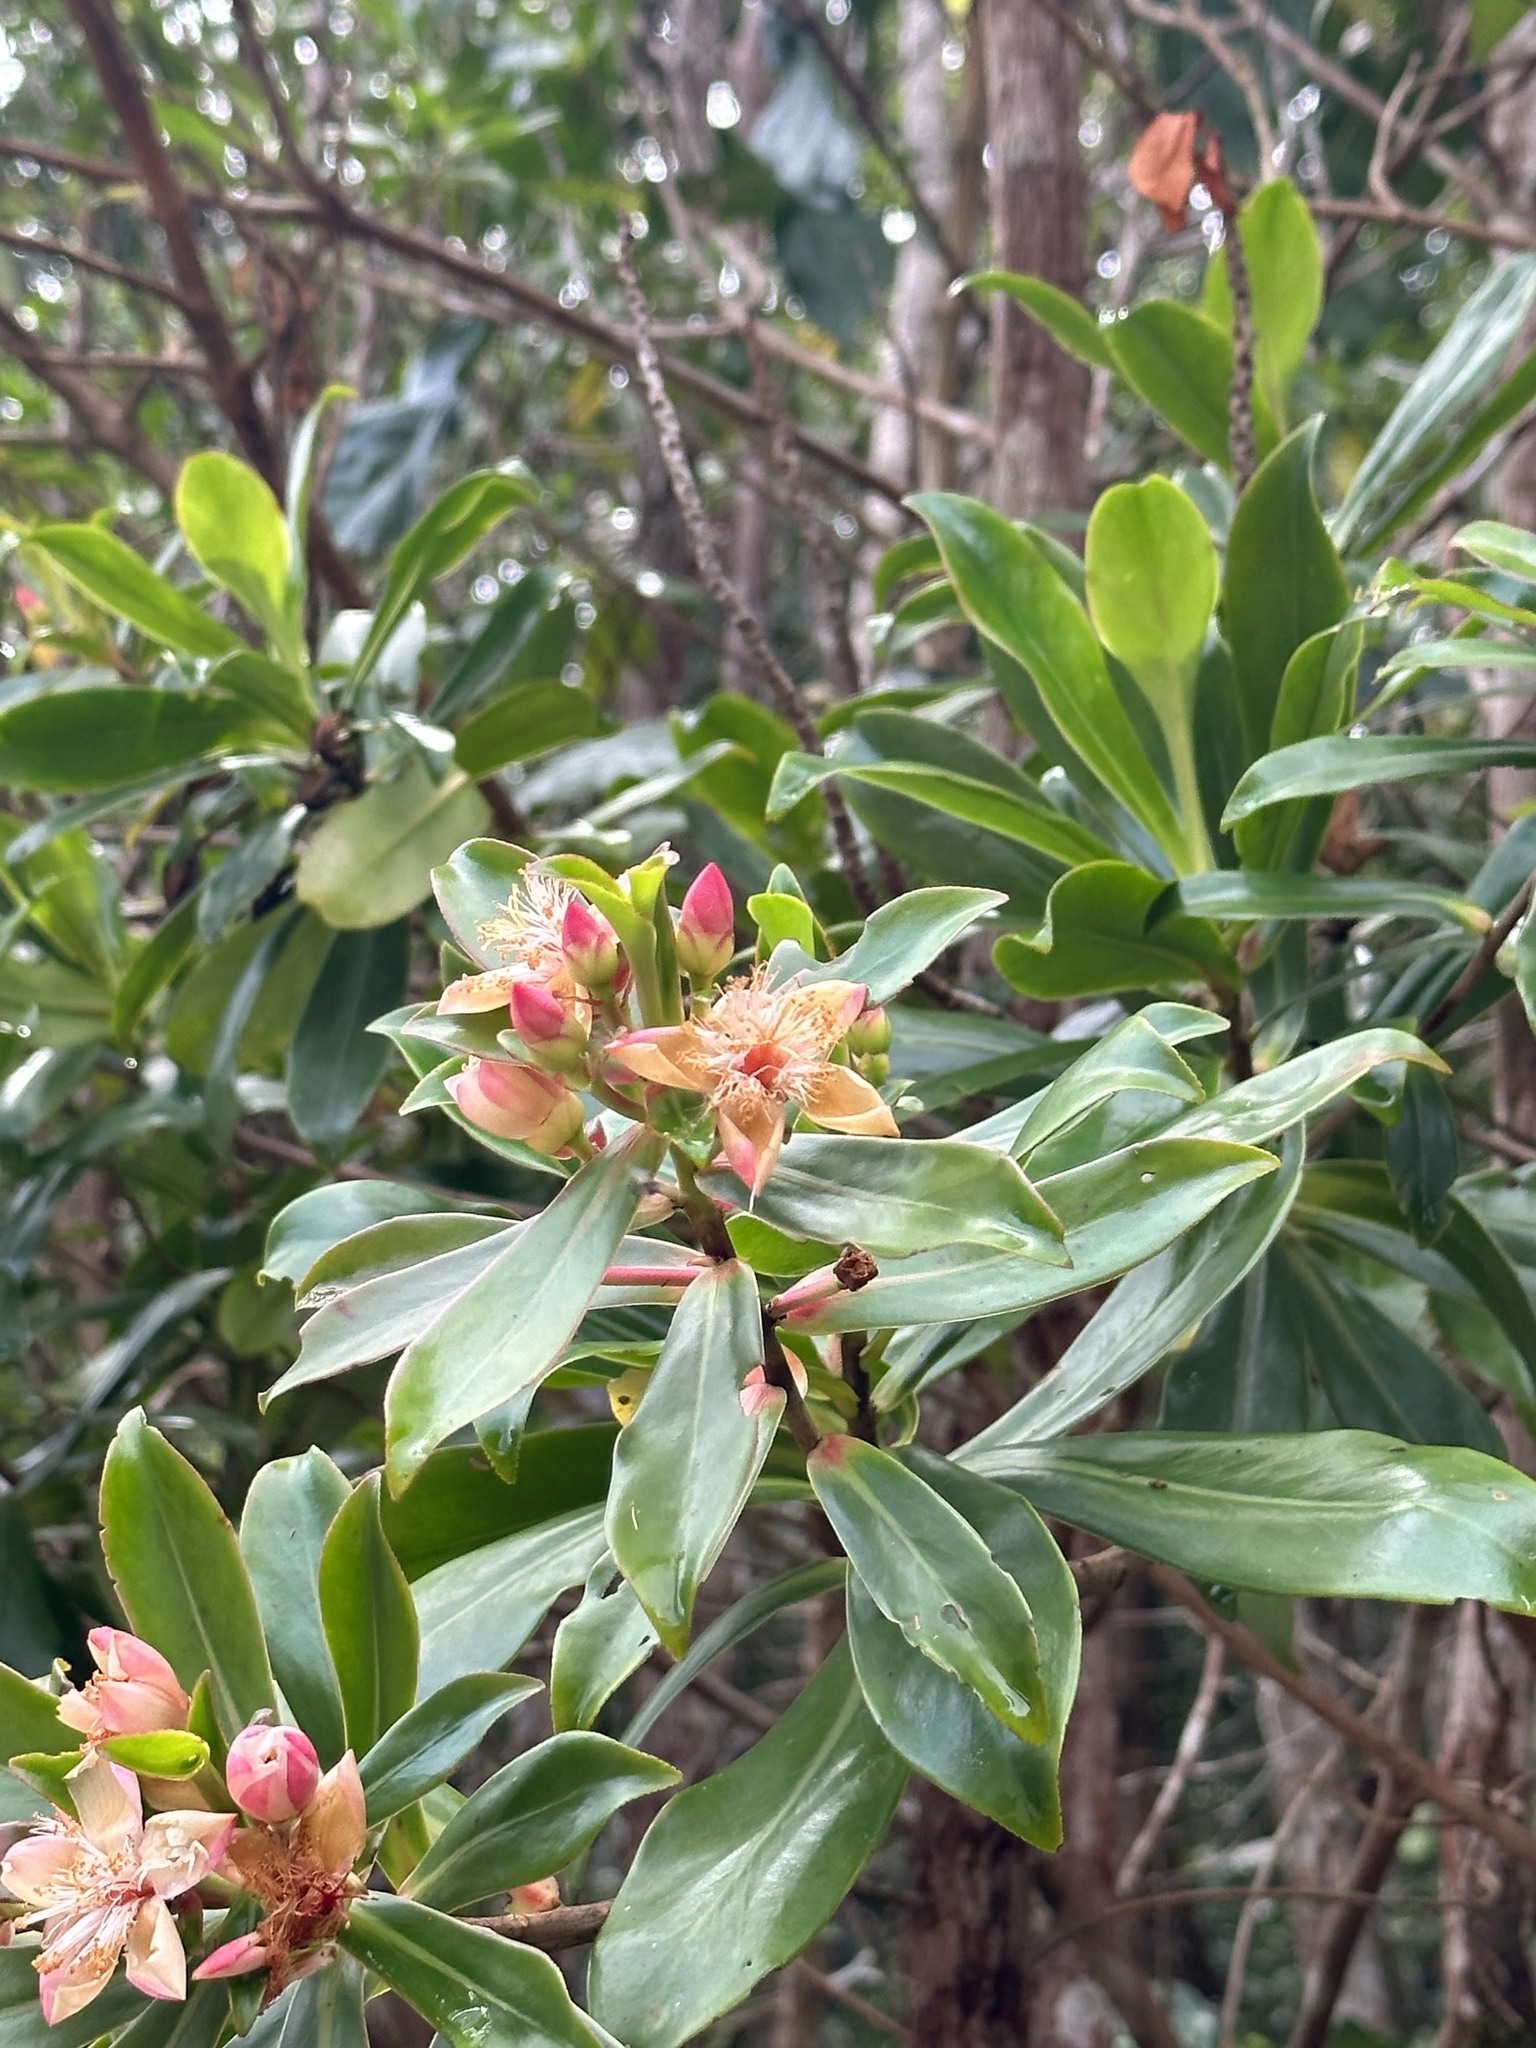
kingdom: Plantae
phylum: Tracheophyta
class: Magnoliopsida
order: Malpighiales
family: Bonnetiaceae
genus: Ploiarium
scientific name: Ploiarium elegans
